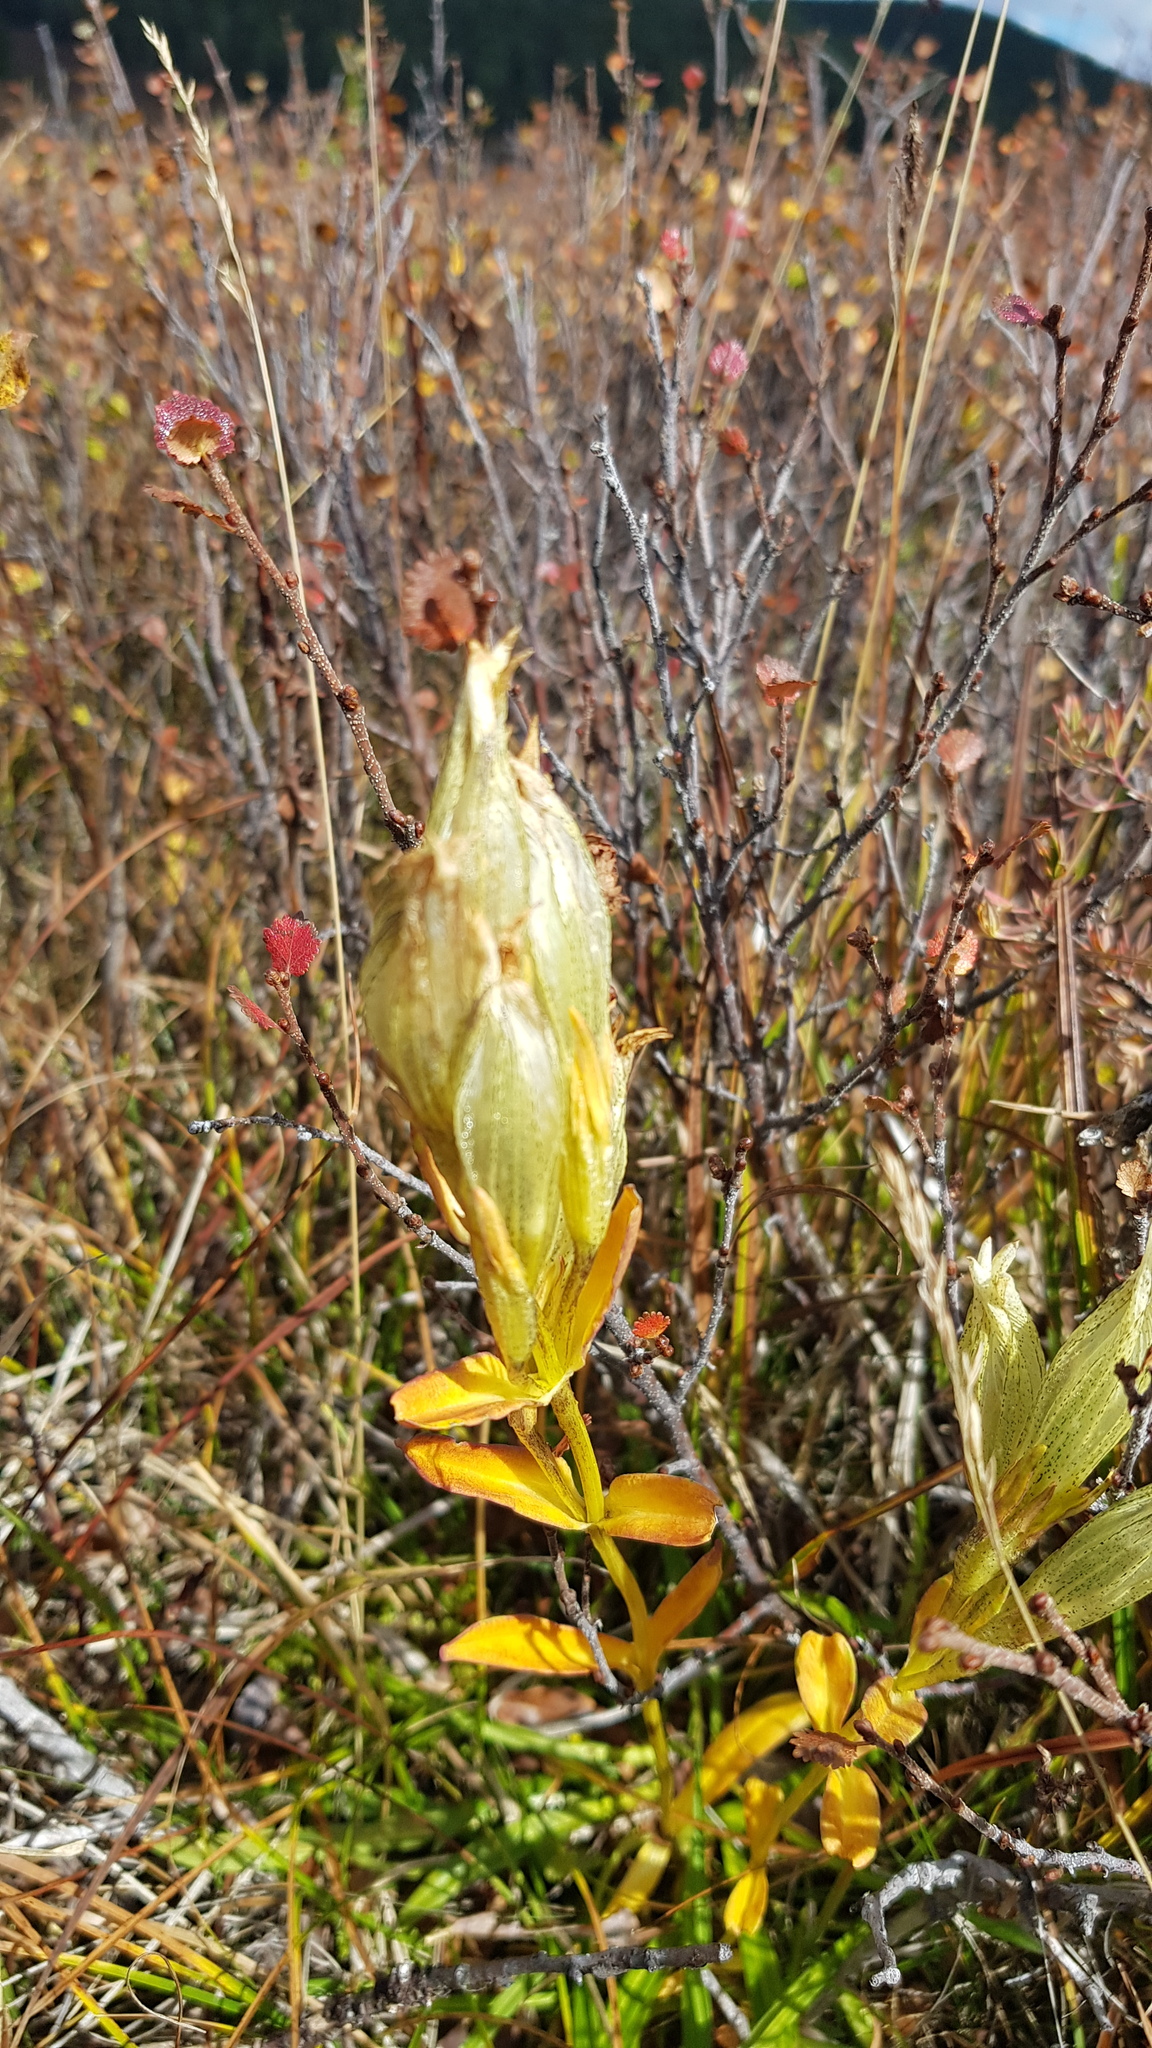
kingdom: Plantae
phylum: Tracheophyta
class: Magnoliopsida
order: Gentianales
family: Gentianaceae
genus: Gentiana
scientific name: Gentiana algida
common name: Arctic gentian
